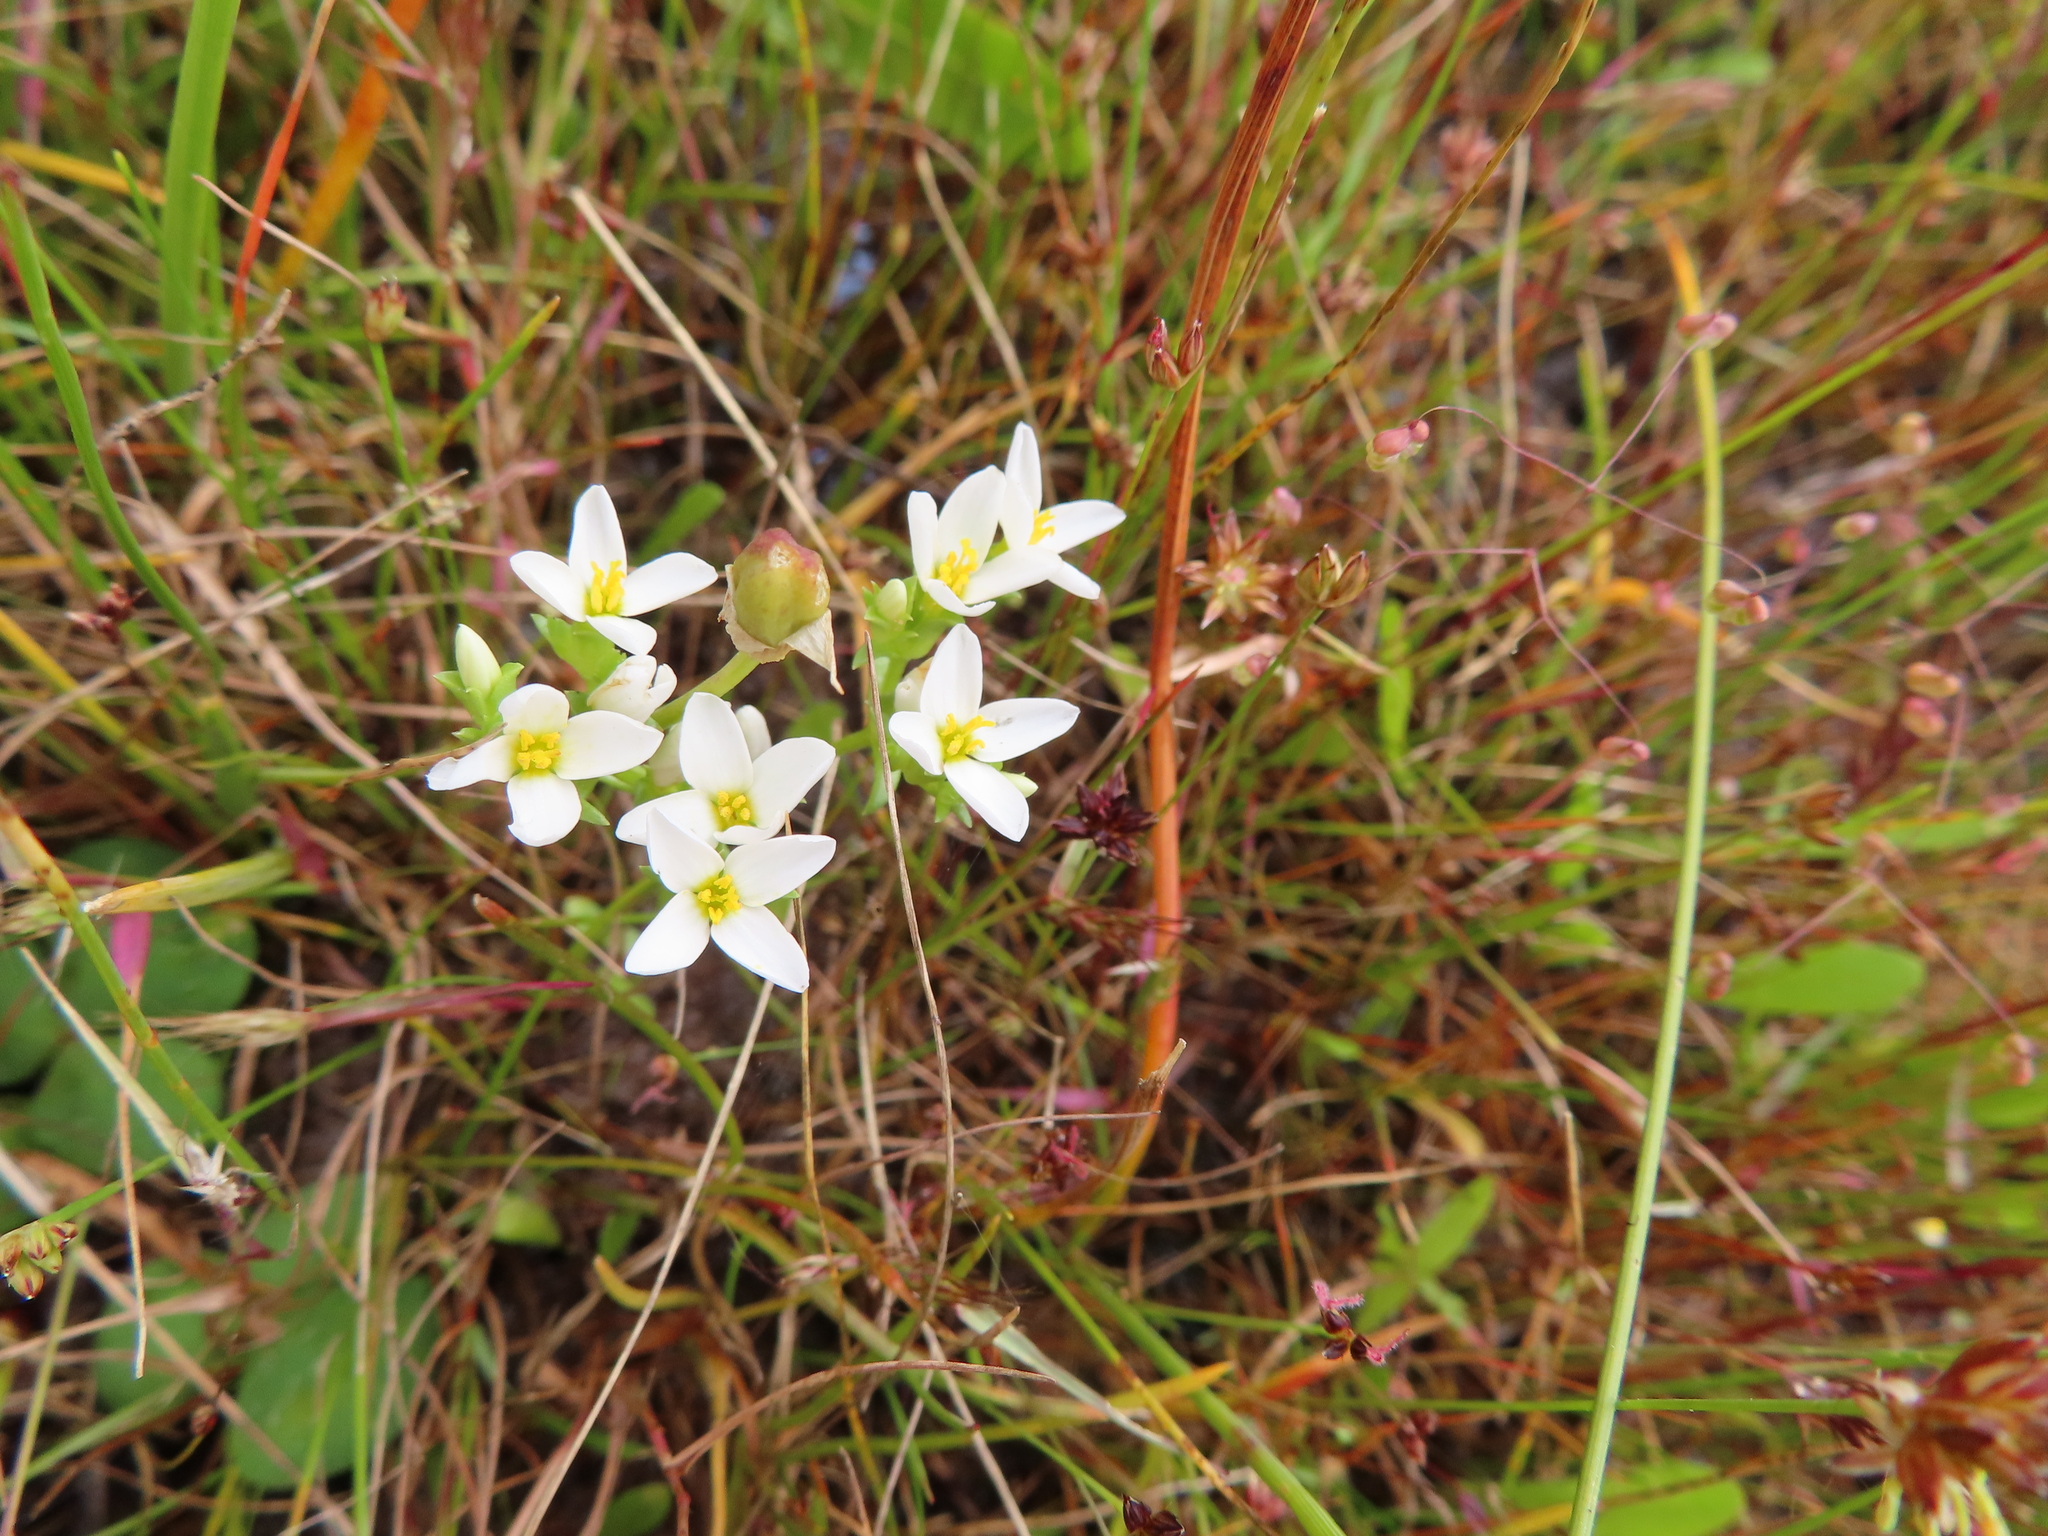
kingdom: Plantae
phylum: Tracheophyta
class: Magnoliopsida
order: Gentianales
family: Gentianaceae
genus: Sebaea
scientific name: Sebaea albens
